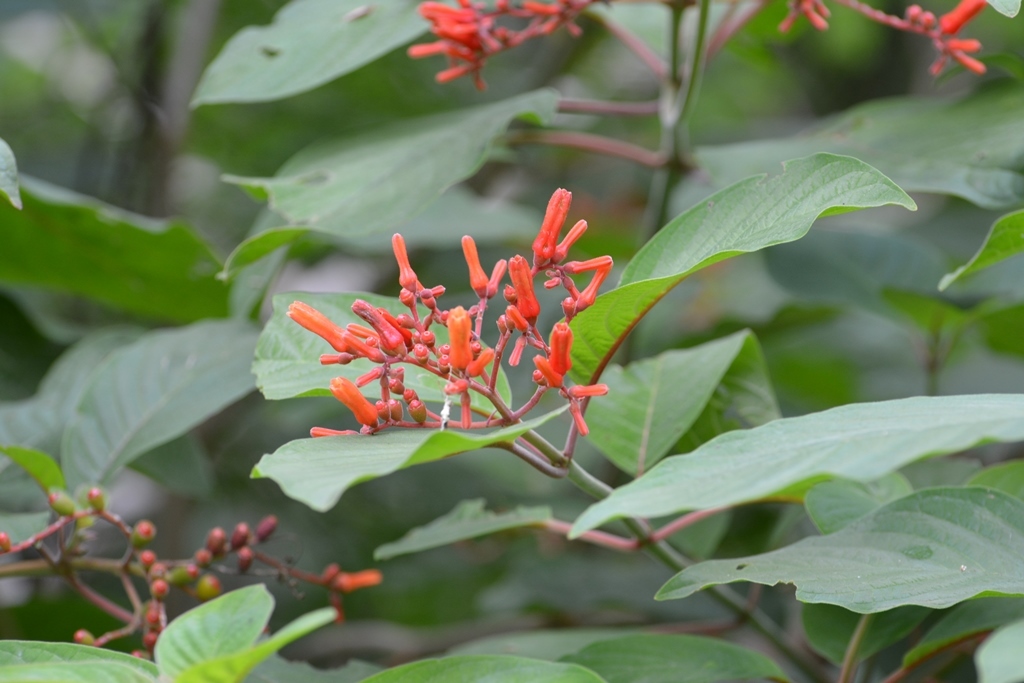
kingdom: Plantae
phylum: Tracheophyta
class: Magnoliopsida
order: Gentianales
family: Rubiaceae
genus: Hamelia
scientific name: Hamelia patens
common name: Redhead
